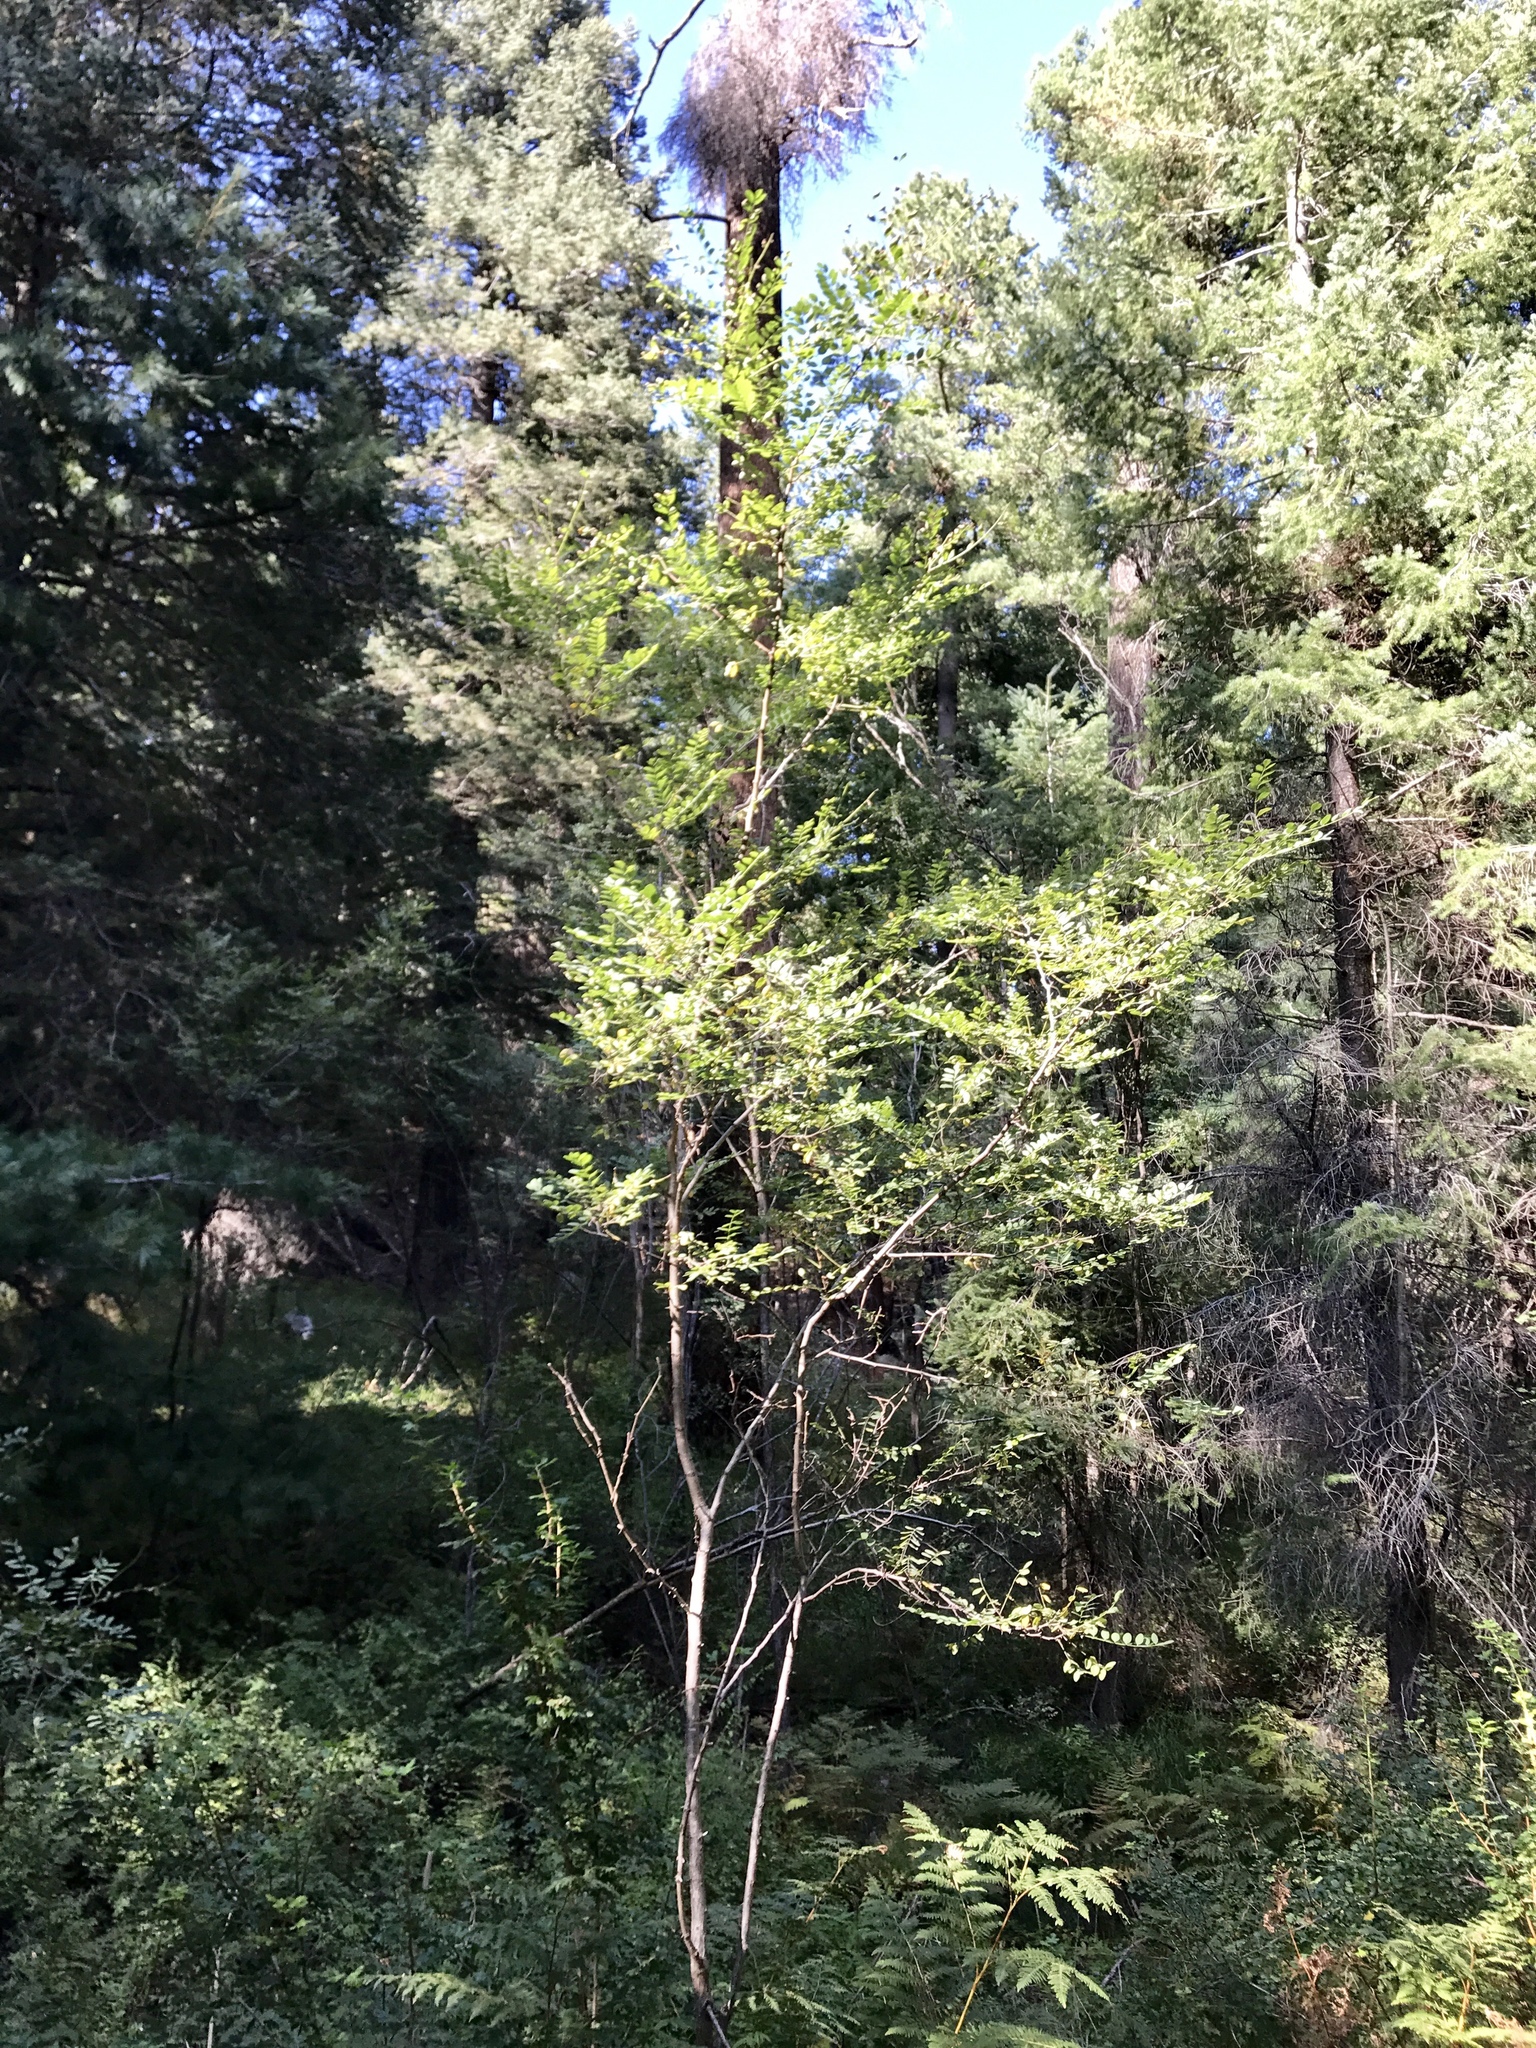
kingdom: Plantae
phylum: Tracheophyta
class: Magnoliopsida
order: Fabales
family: Fabaceae
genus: Robinia
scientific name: Robinia neomexicana
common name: New mexico locust
